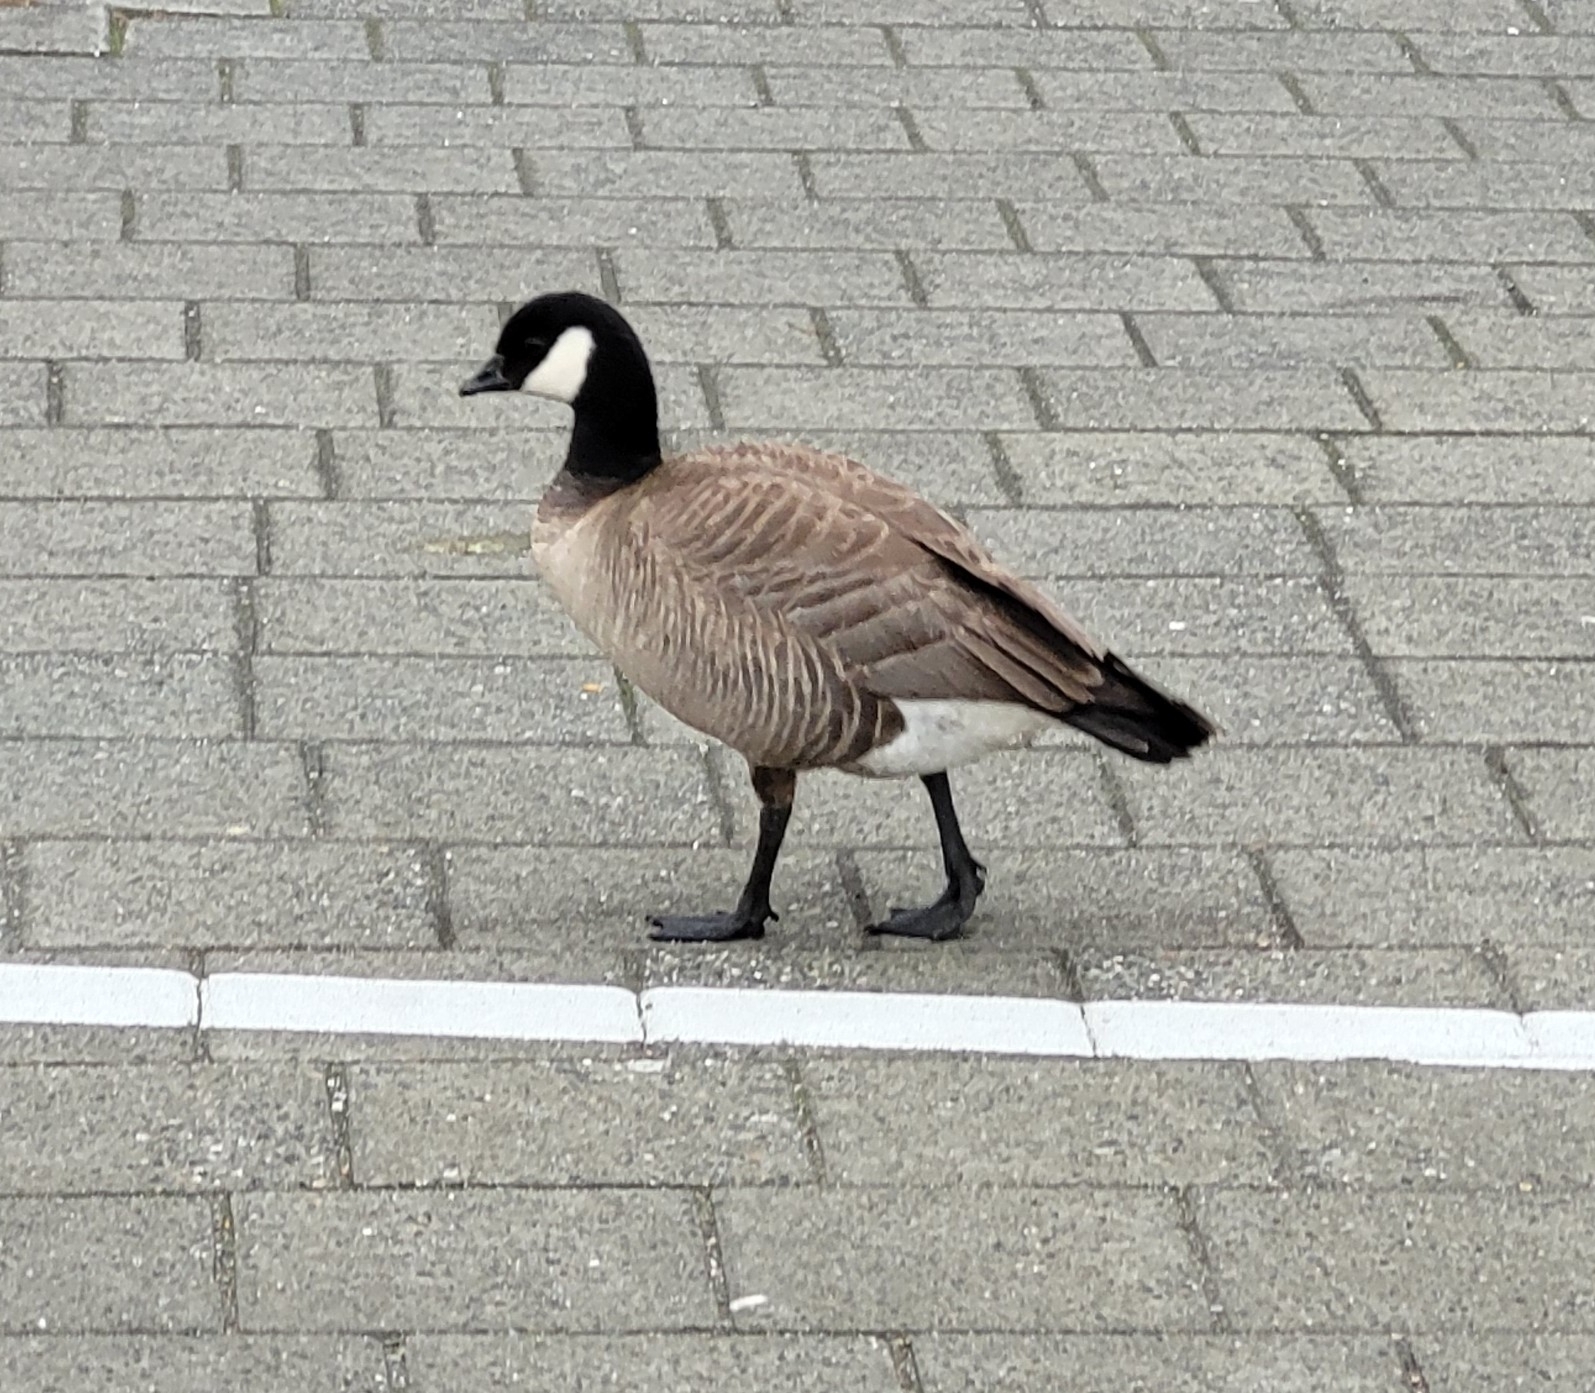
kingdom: Animalia
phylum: Chordata
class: Aves
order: Anseriformes
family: Anatidae
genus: Branta
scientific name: Branta hutchinsii
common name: Cackling goose
